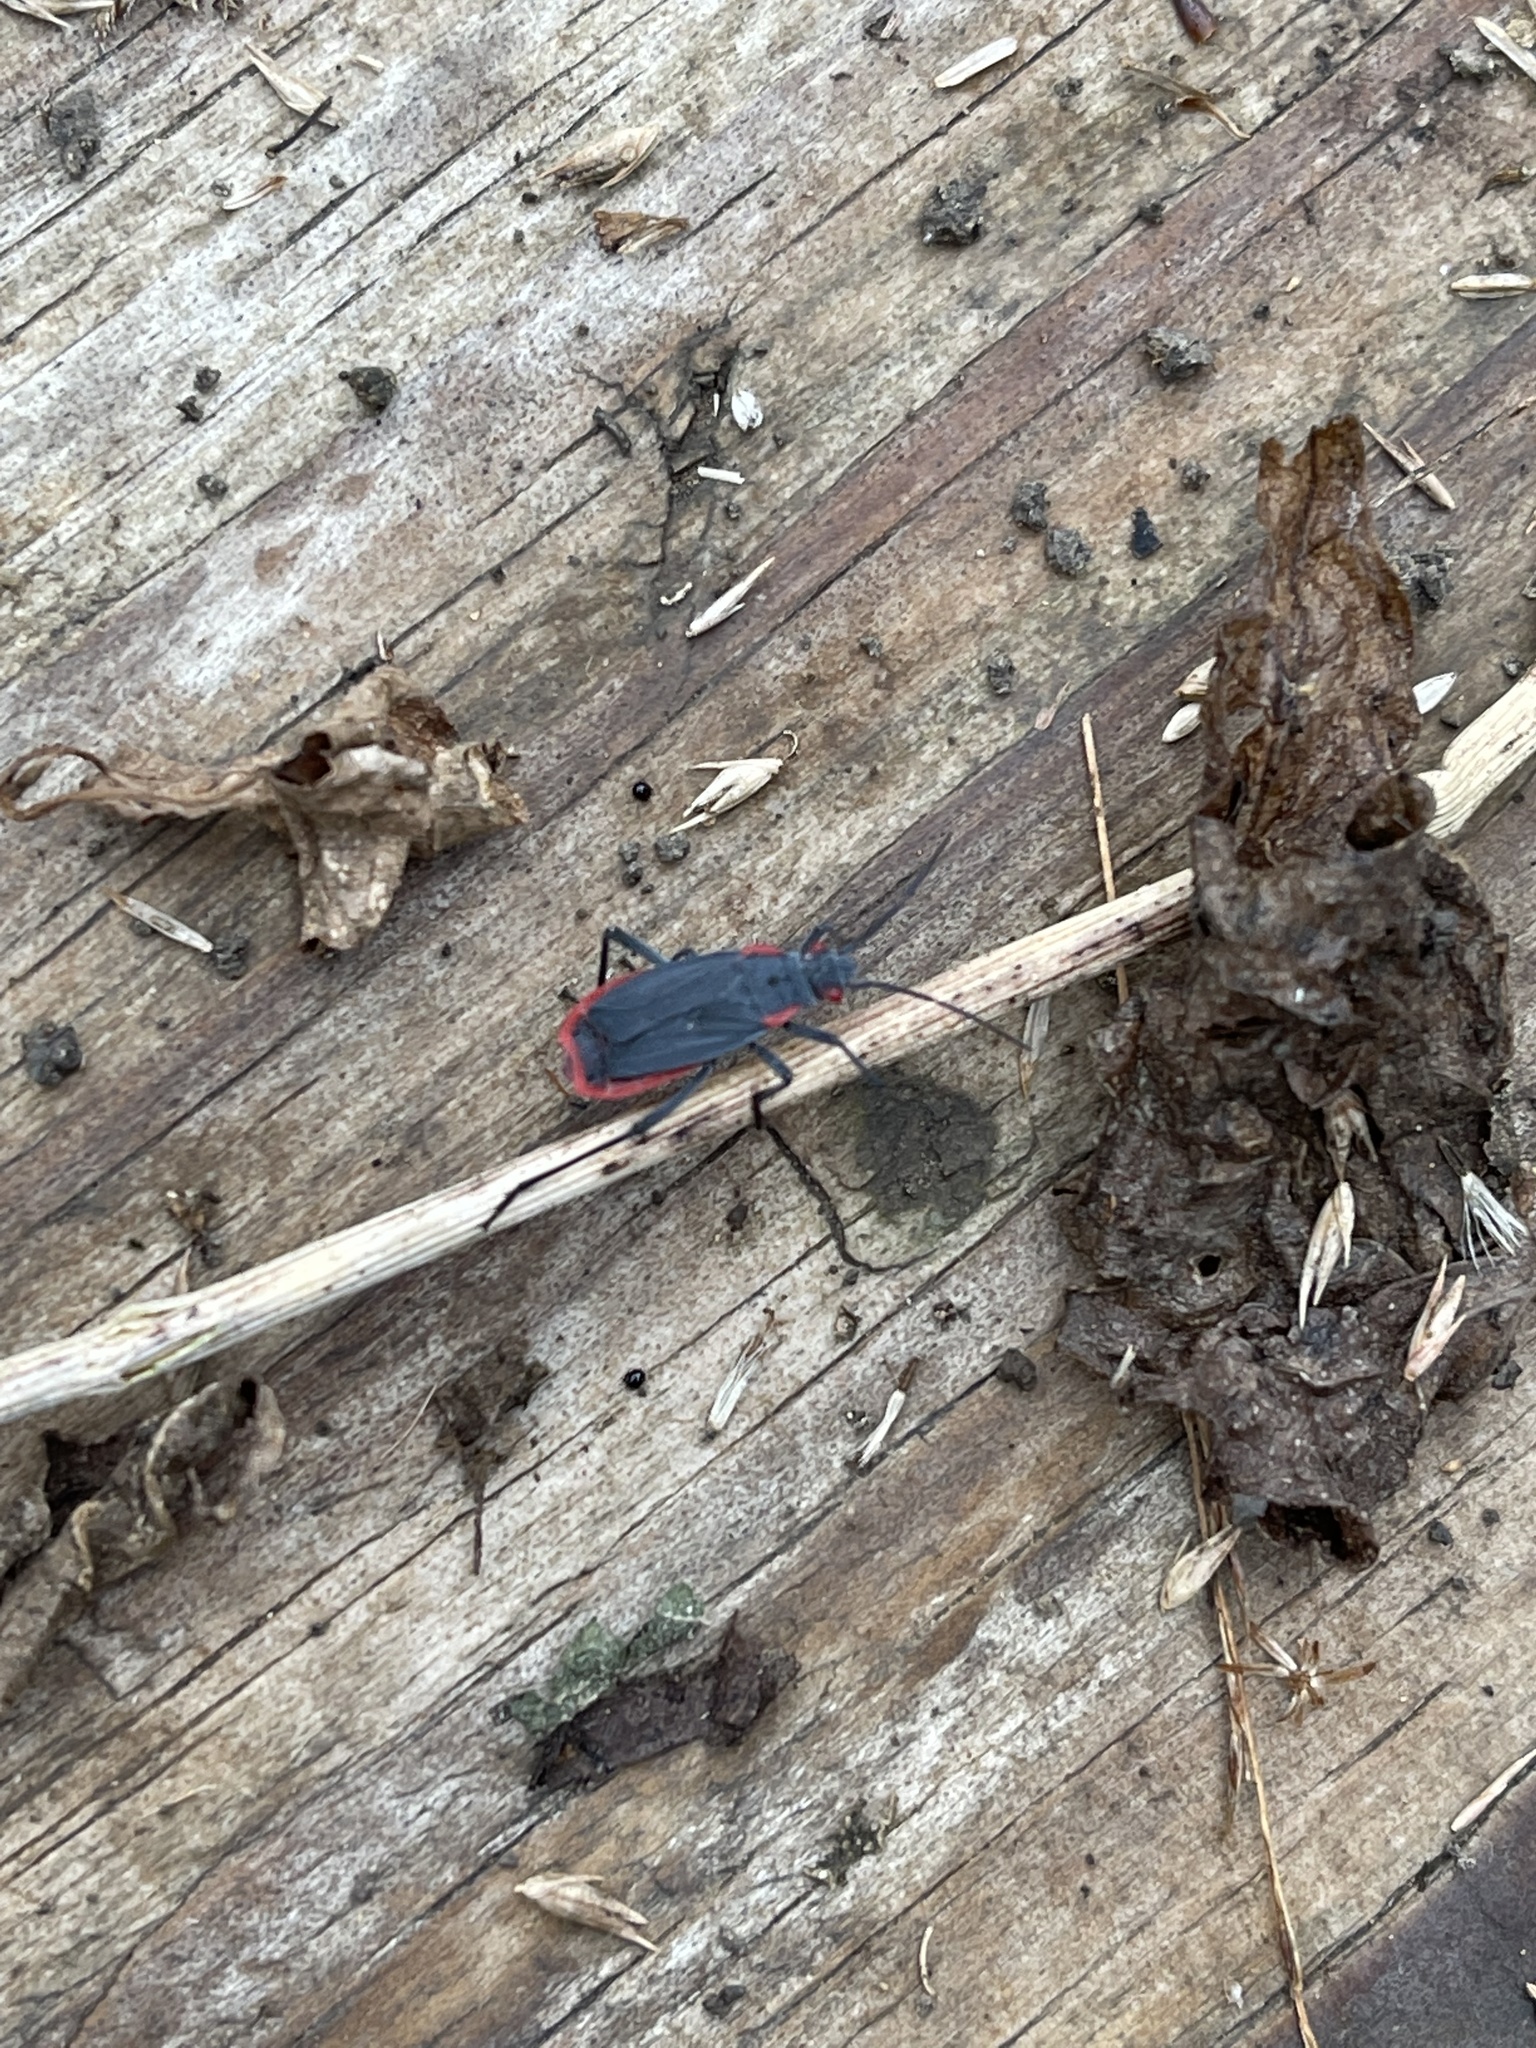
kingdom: Animalia
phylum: Arthropoda
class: Insecta
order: Hemiptera
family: Rhopalidae
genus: Jadera
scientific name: Jadera haematoloma
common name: Red-shouldered bug
